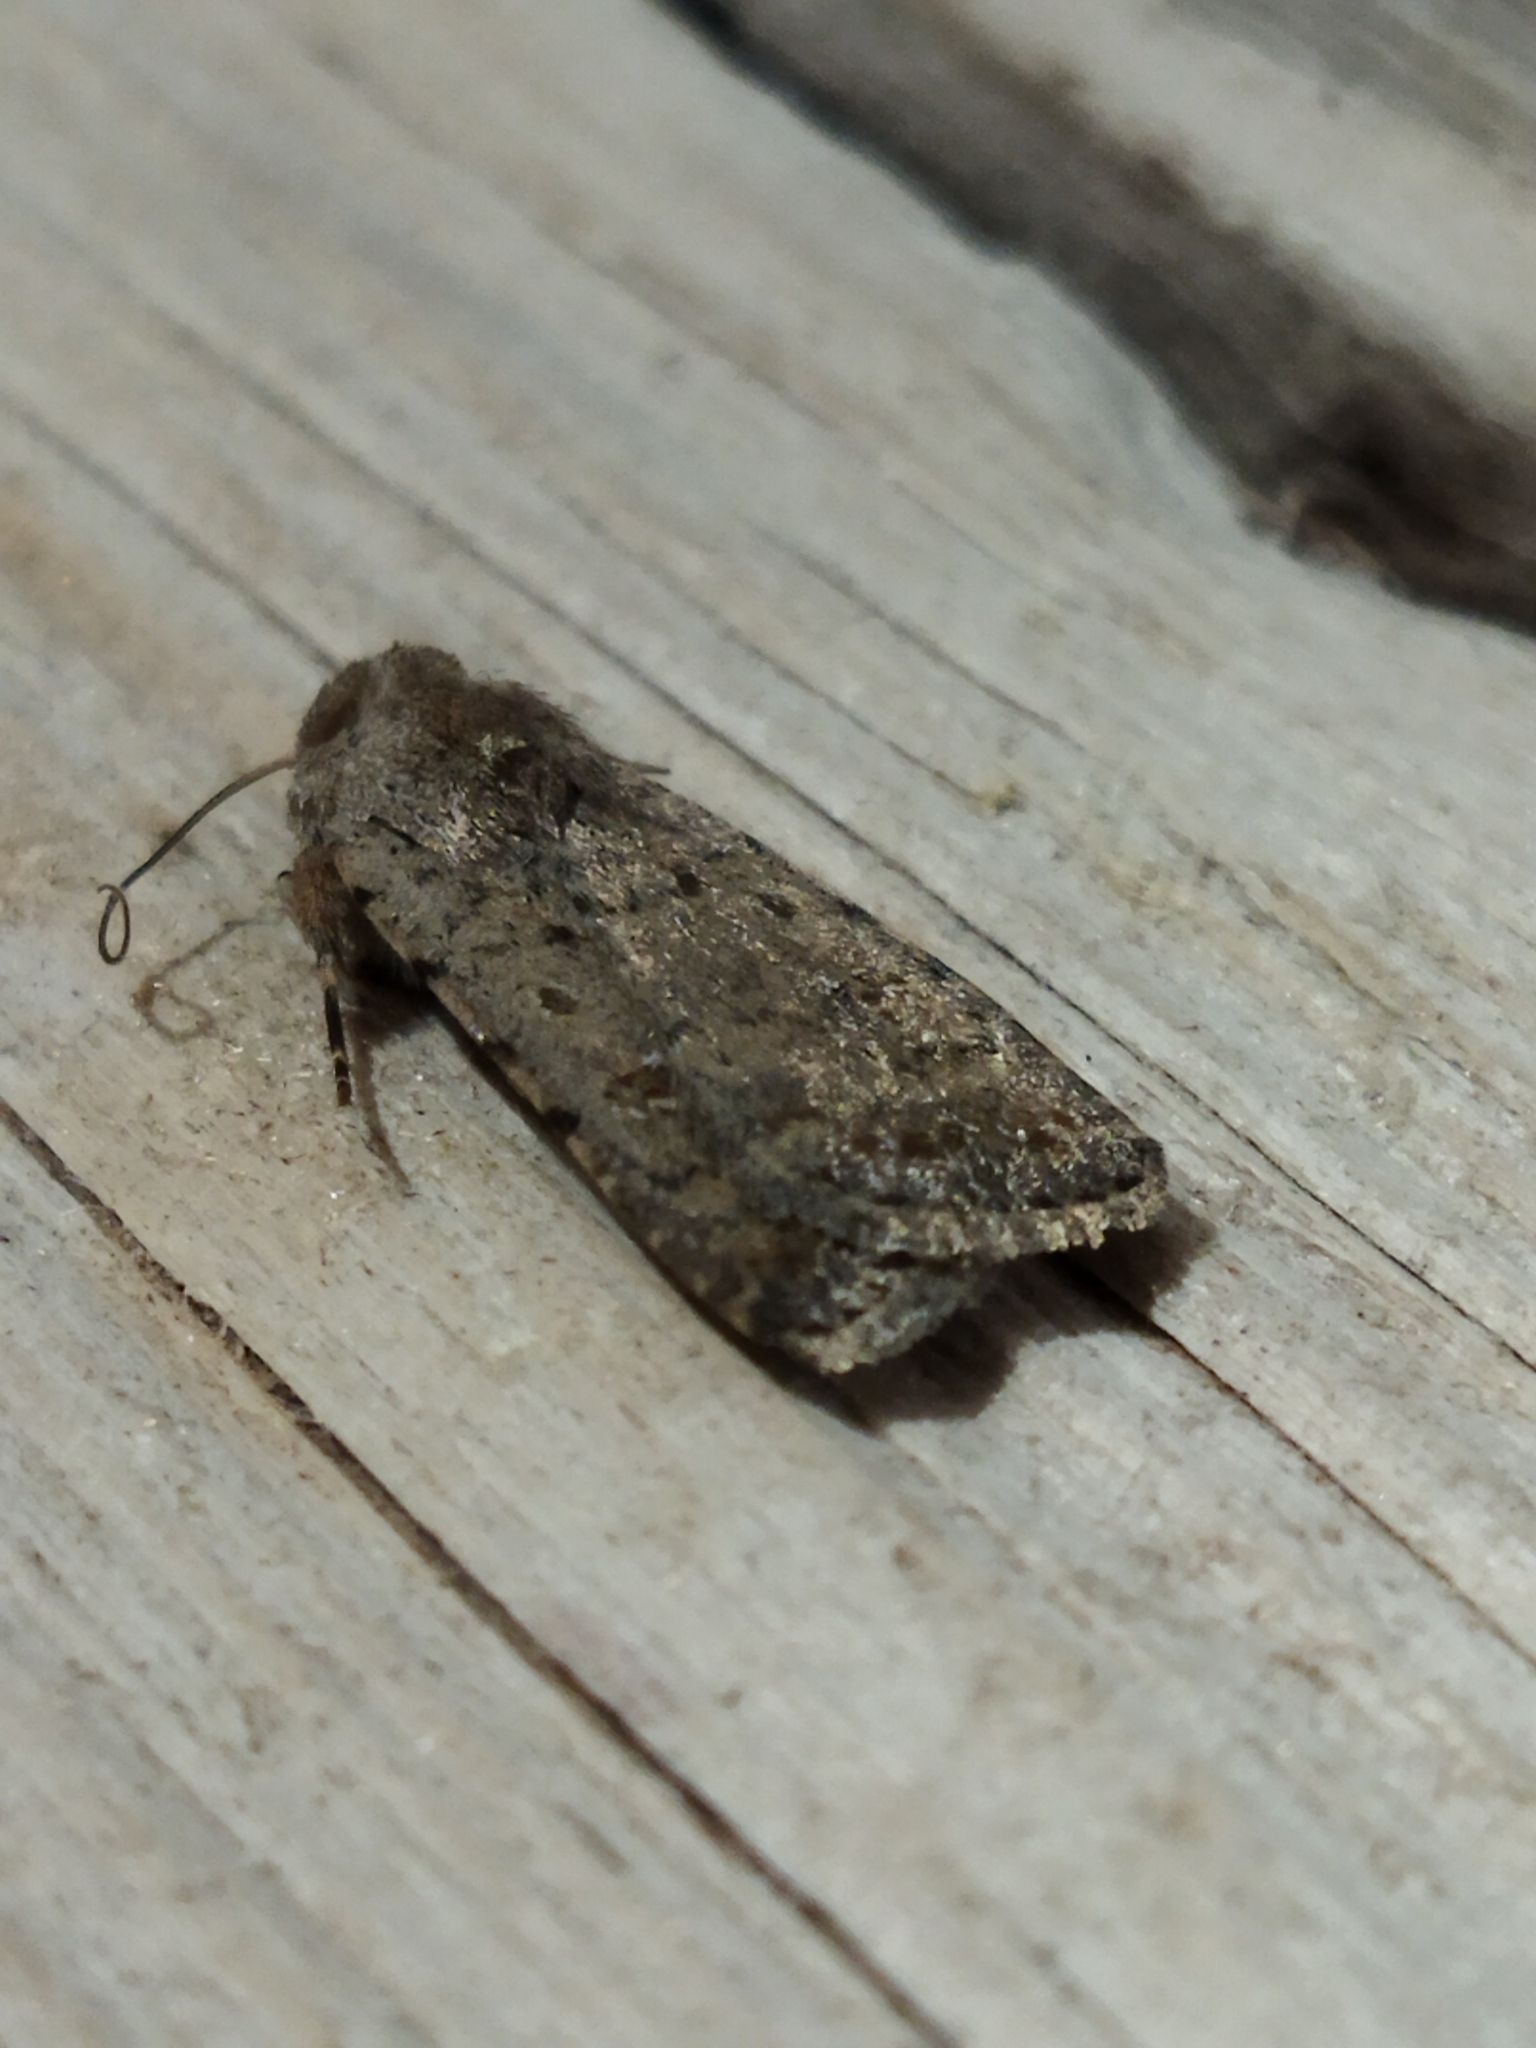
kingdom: Animalia
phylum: Arthropoda
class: Insecta
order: Lepidoptera
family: Noctuidae
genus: Caradrina
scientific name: Caradrina clavipalpis
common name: Pale mottled willow
